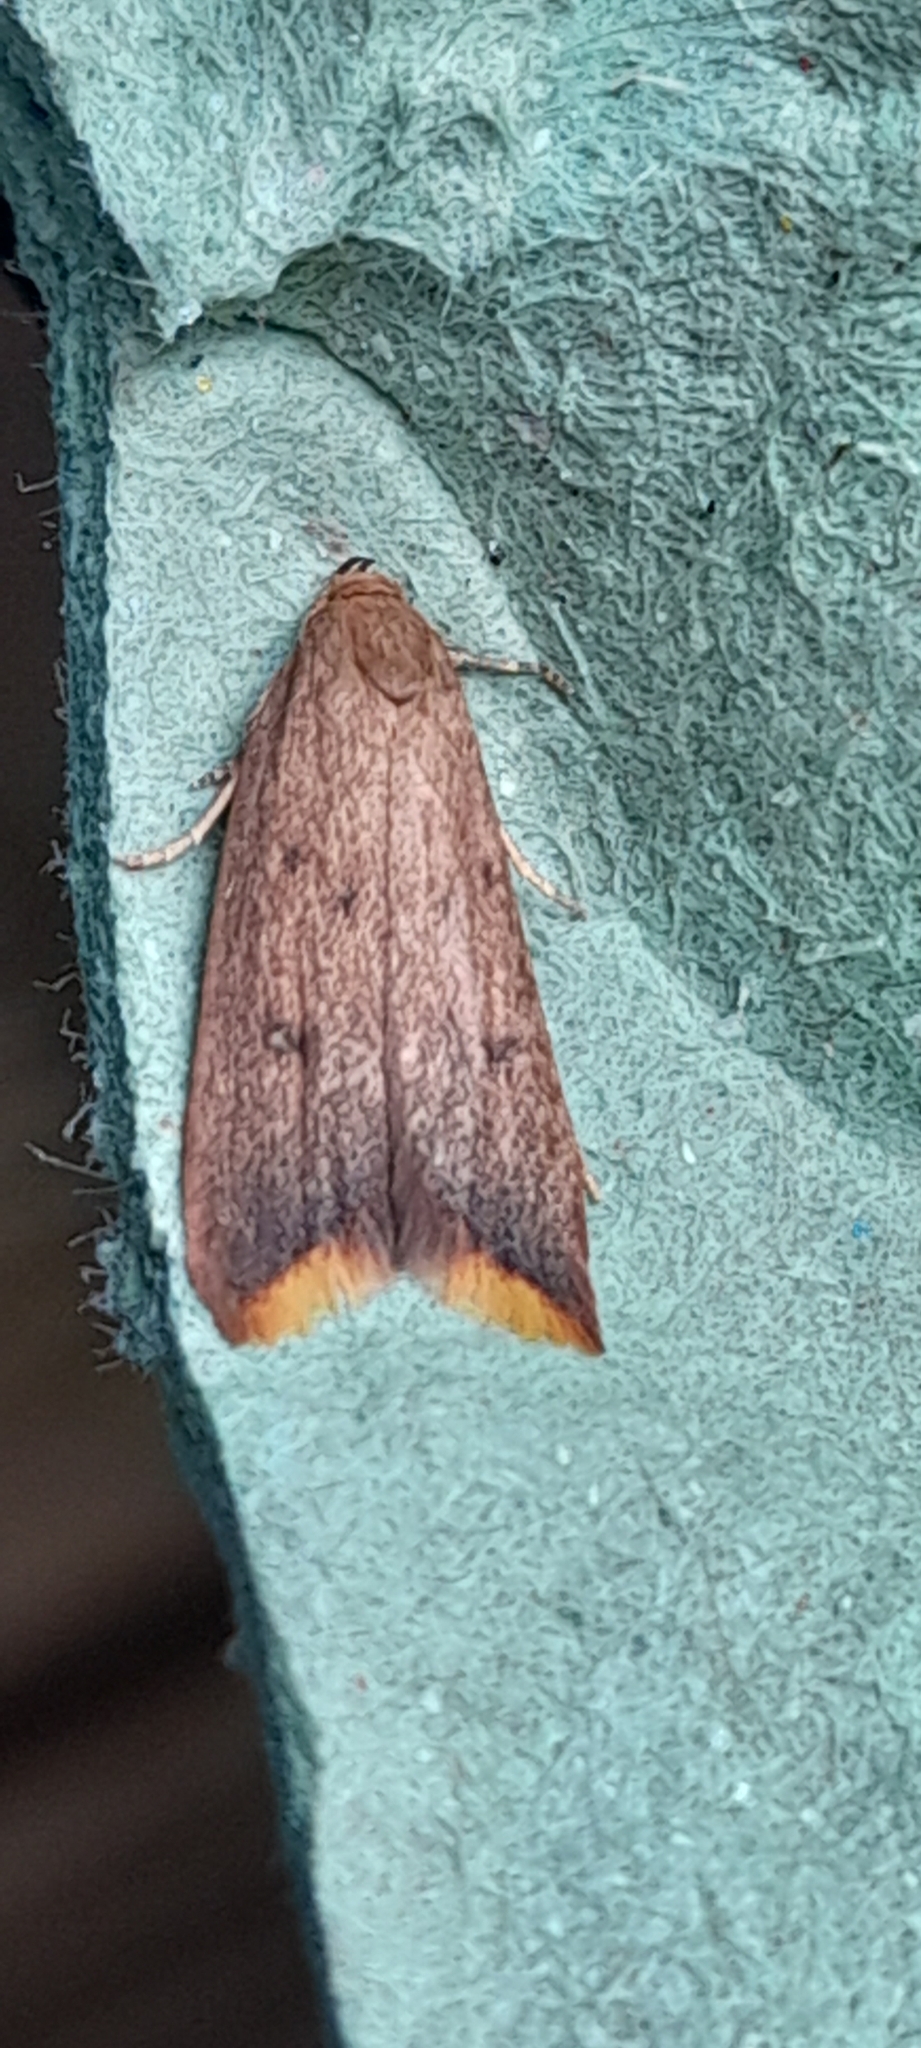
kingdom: Animalia
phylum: Arthropoda
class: Insecta
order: Lepidoptera
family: Oecophoridae
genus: Tachystola
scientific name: Tachystola acroxantha
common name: Ruddy streak
